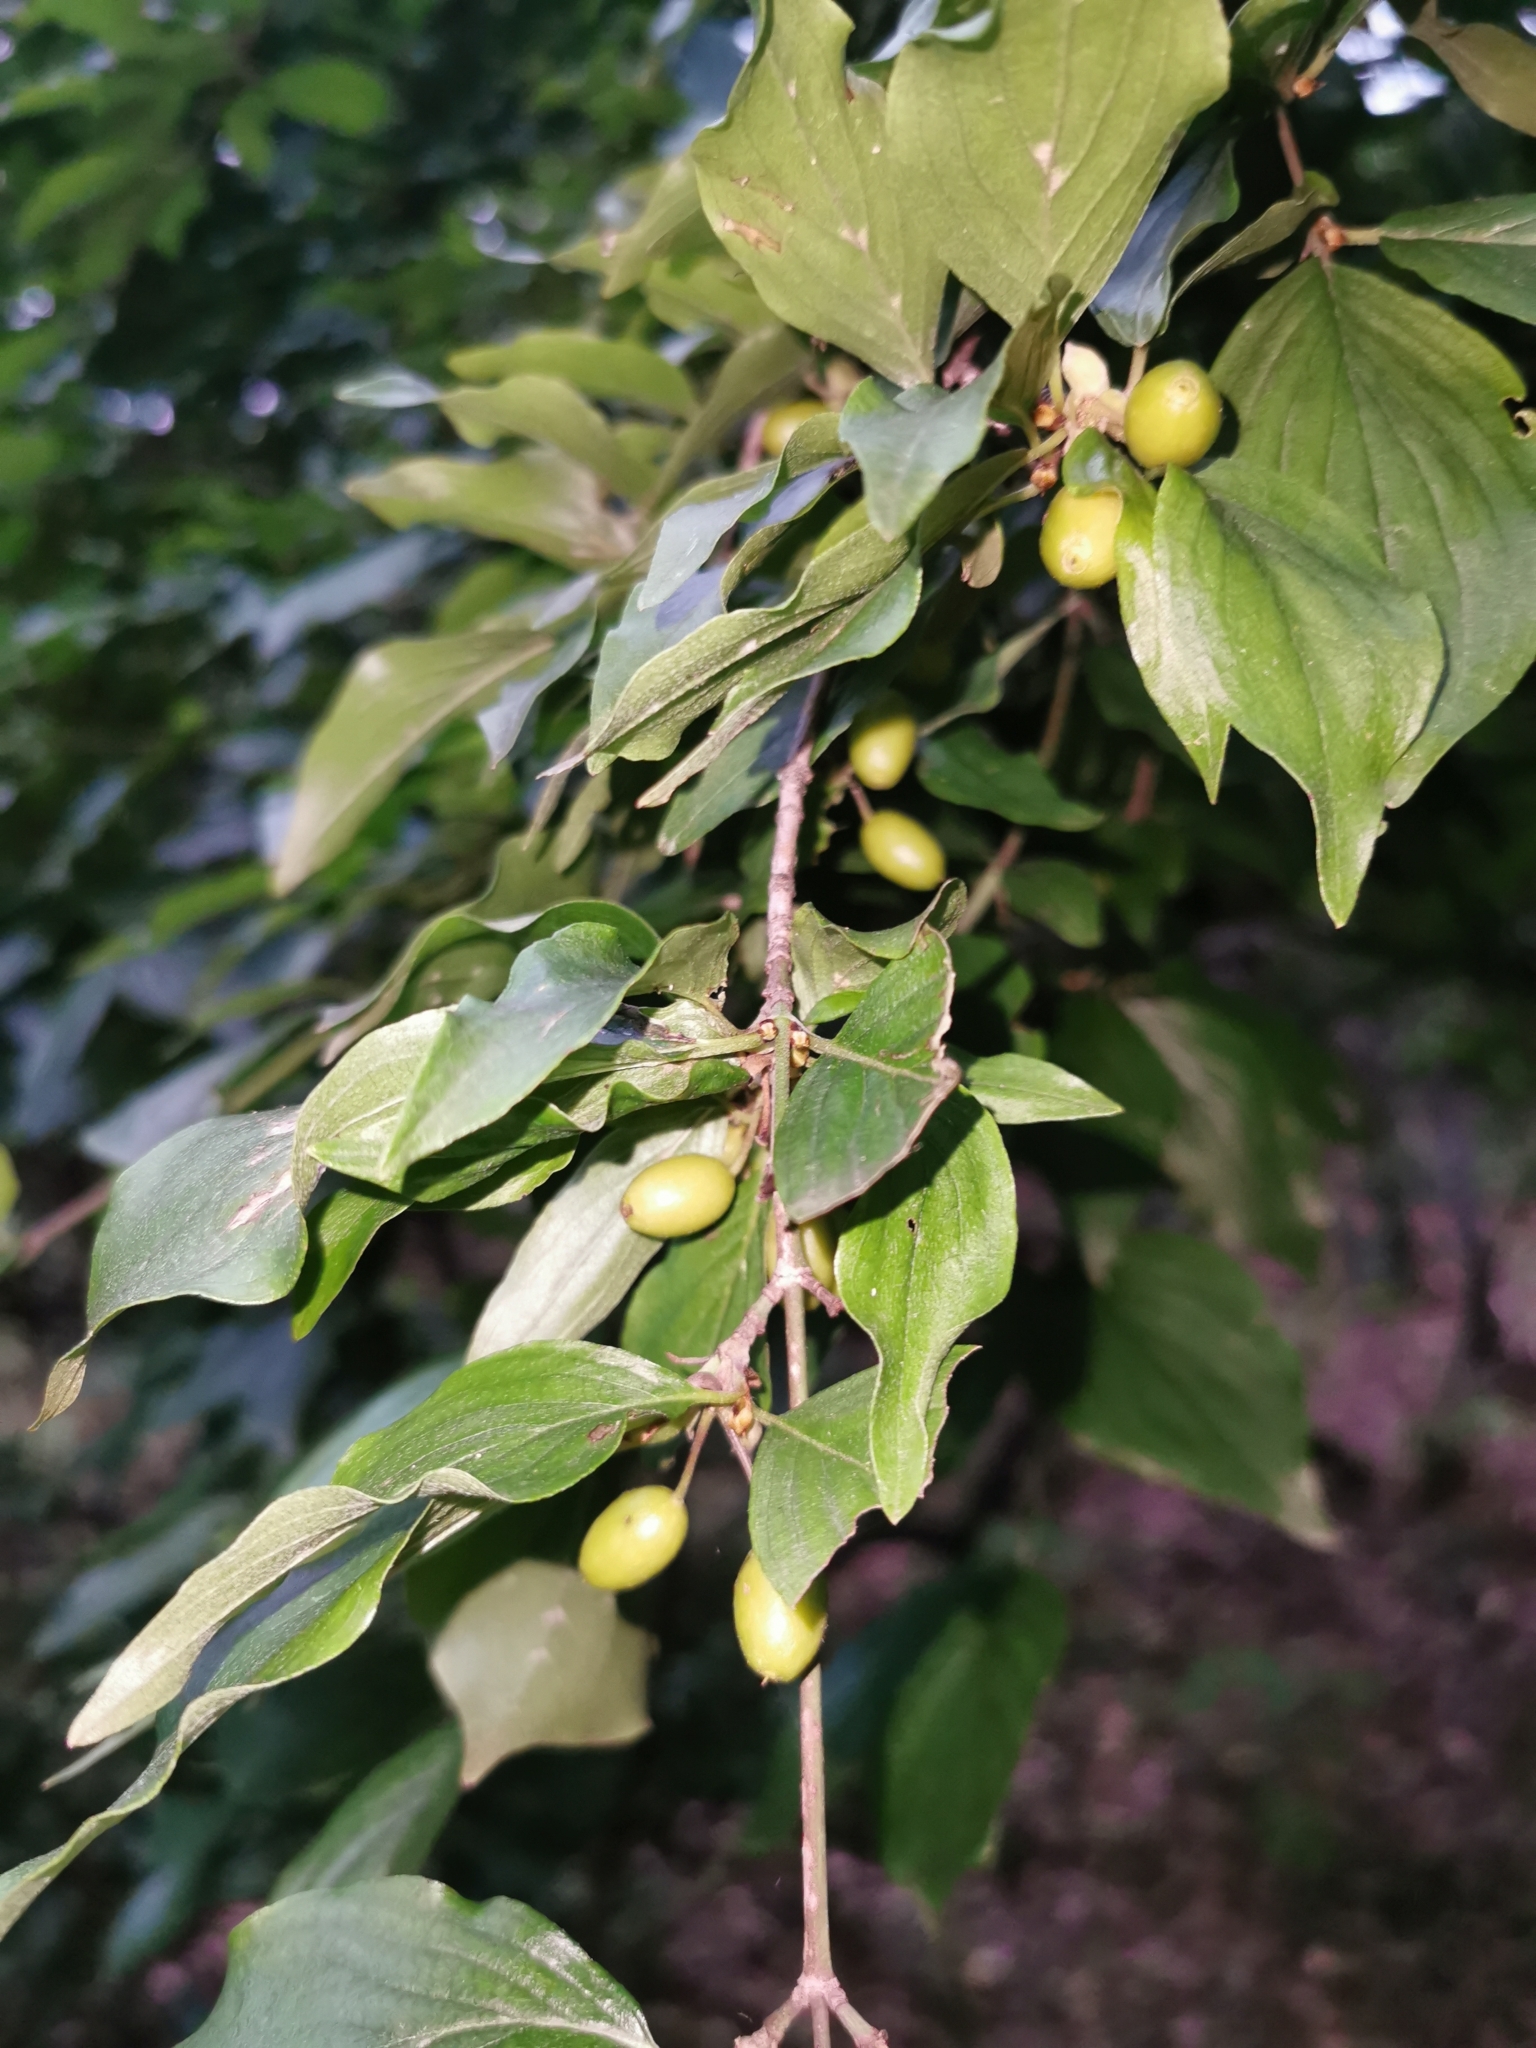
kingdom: Plantae
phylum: Tracheophyta
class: Magnoliopsida
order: Cornales
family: Cornaceae
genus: Cornus
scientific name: Cornus mas
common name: Cornelian-cherry
